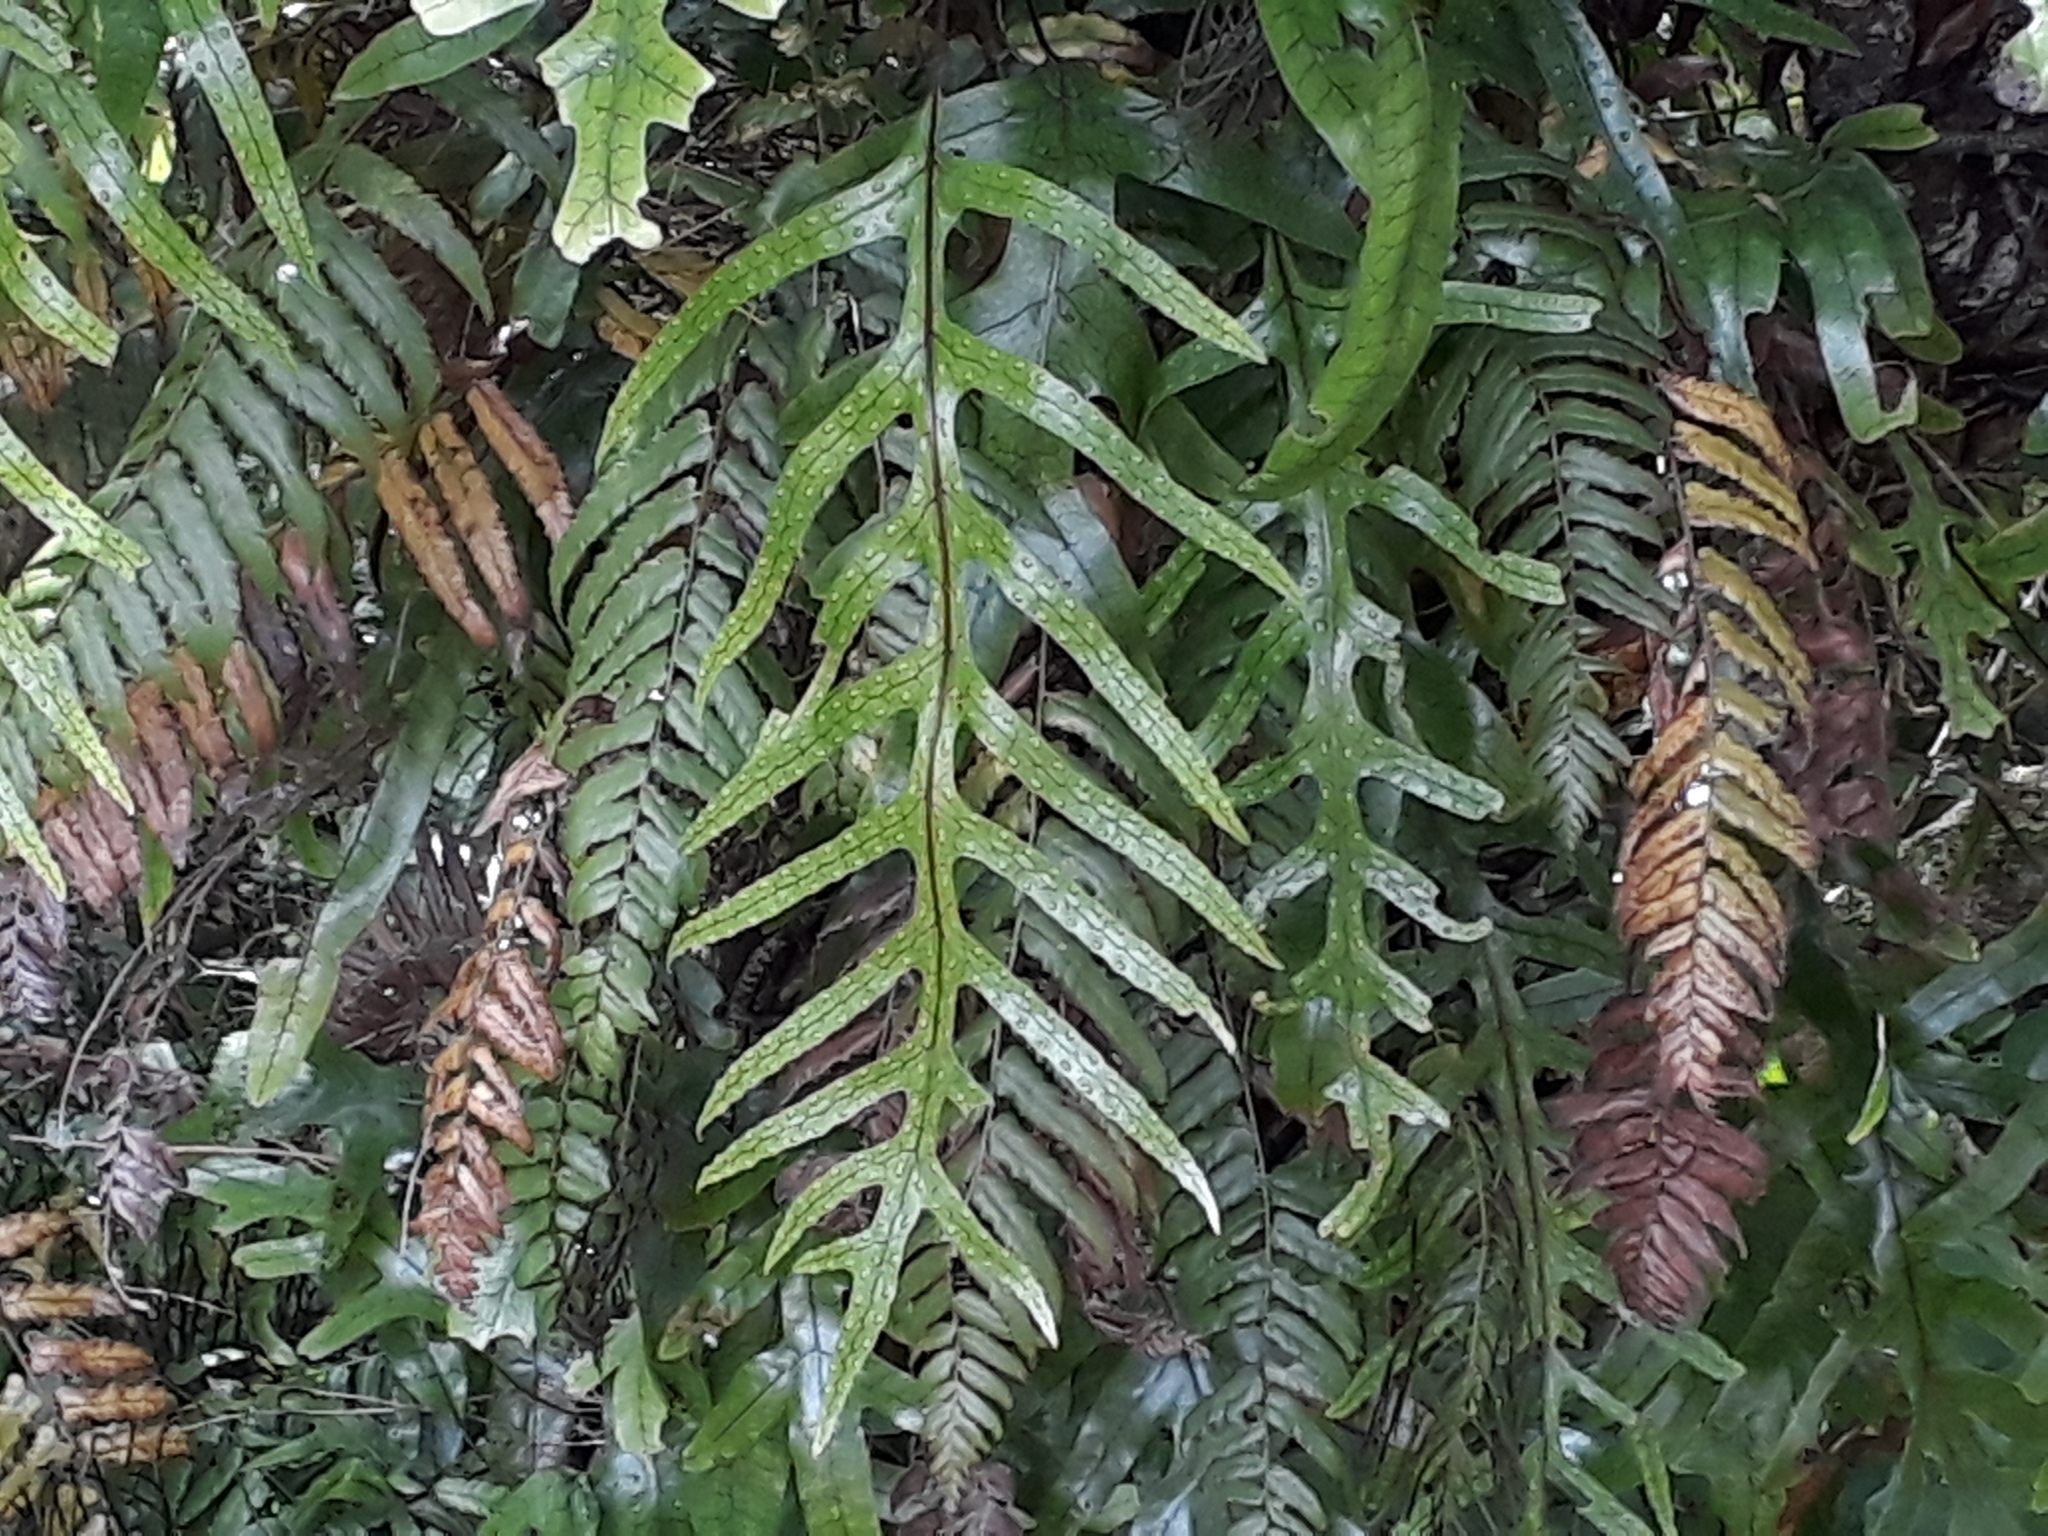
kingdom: Plantae
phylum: Tracheophyta
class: Polypodiopsida
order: Polypodiales
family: Polypodiaceae
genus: Lecanopteris
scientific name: Lecanopteris pustulata
